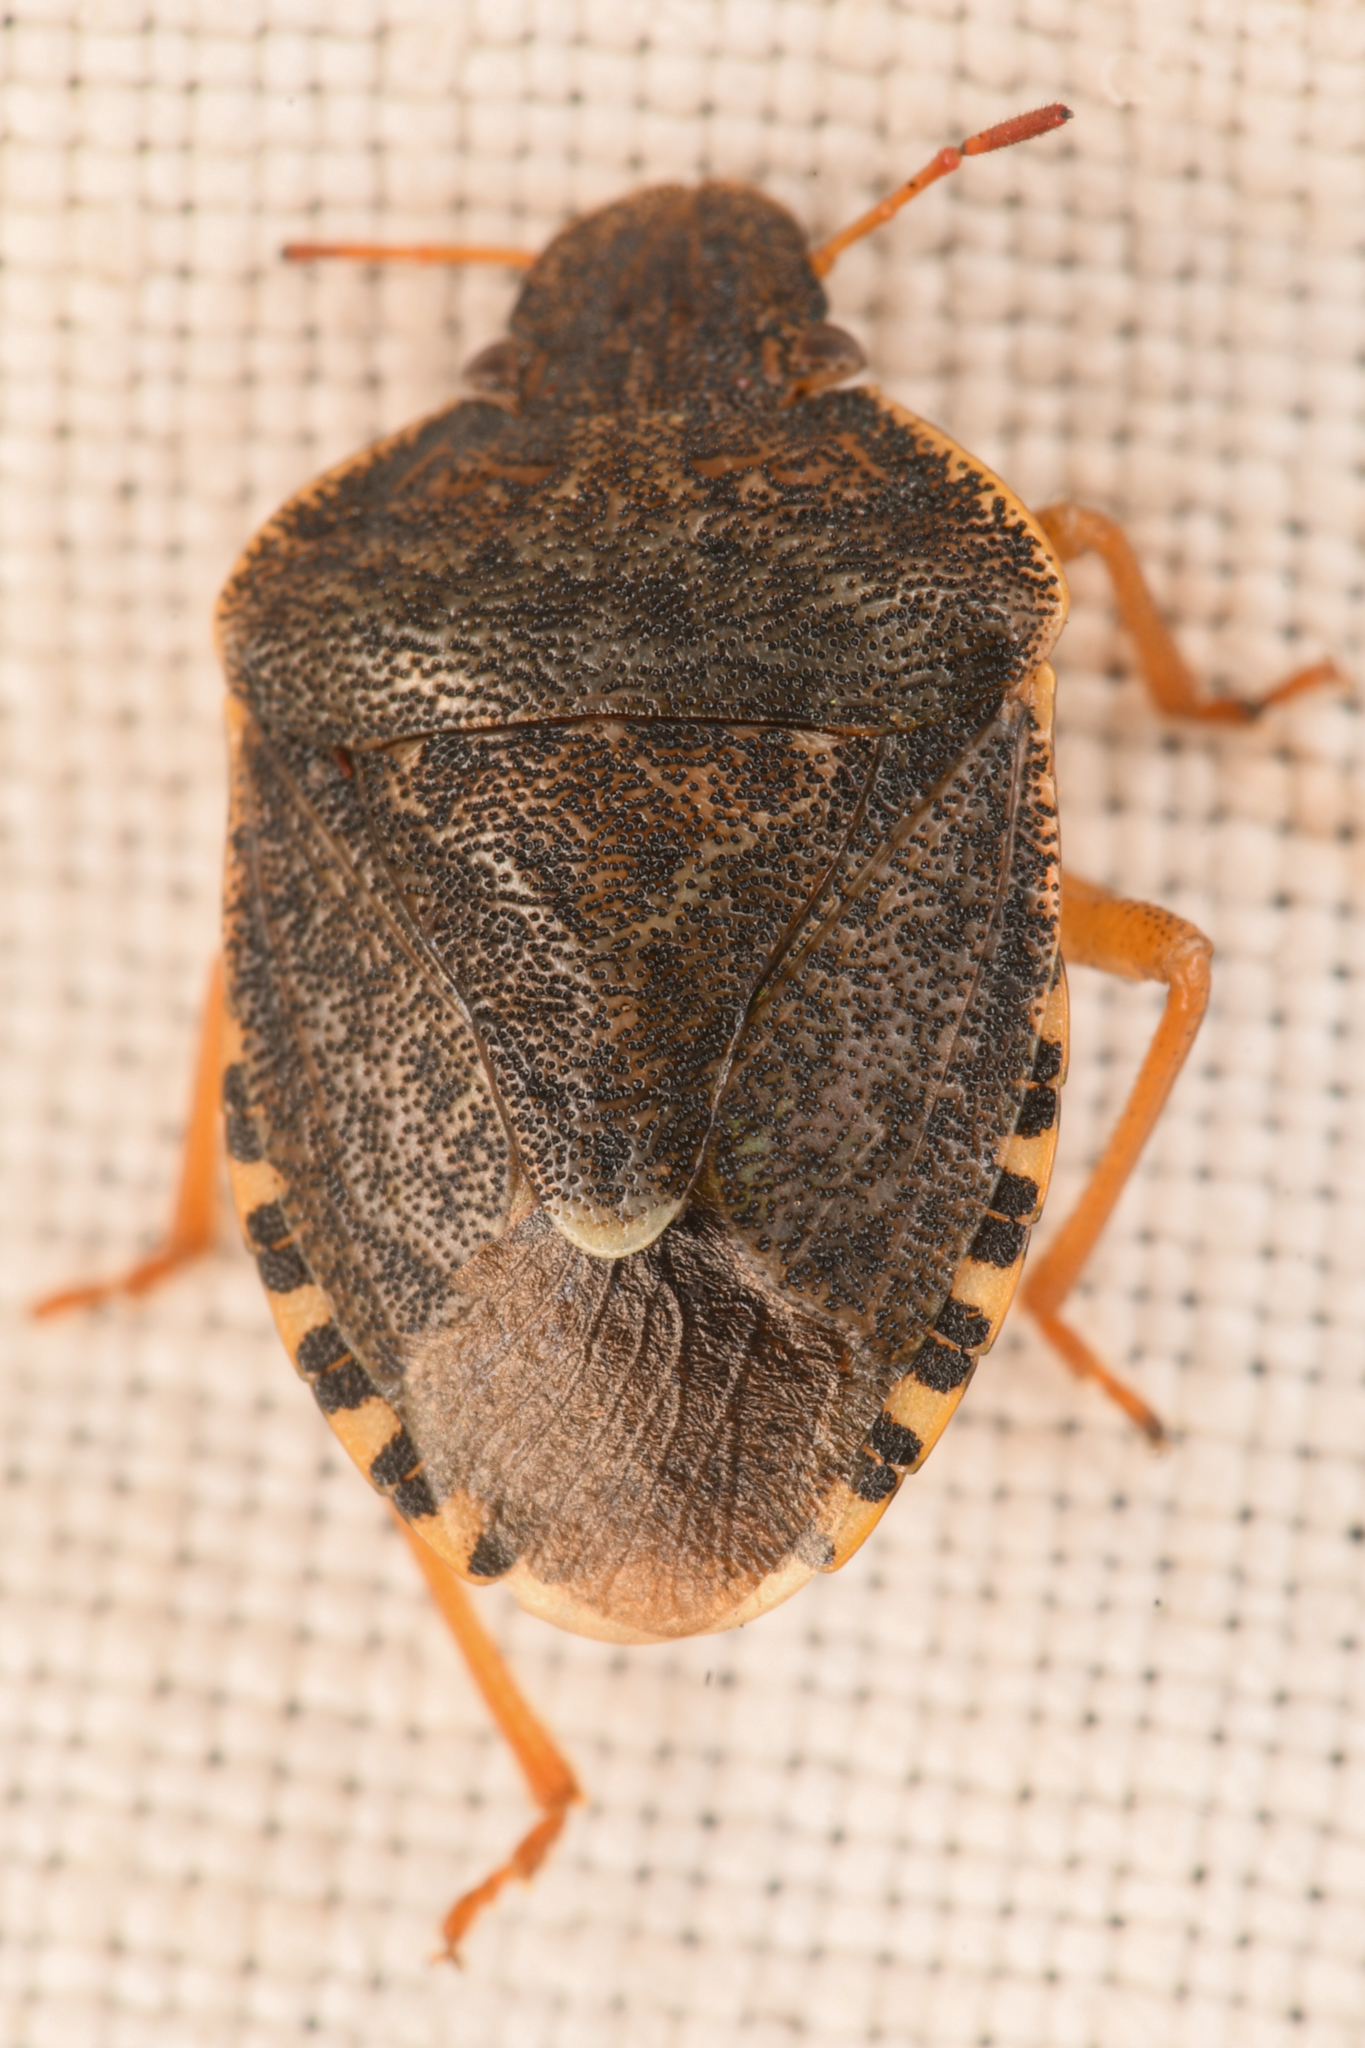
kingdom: Animalia
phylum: Arthropoda
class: Insecta
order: Hemiptera
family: Pentatomidae
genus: Holcostethus
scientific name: Holcostethus abbreviatus
